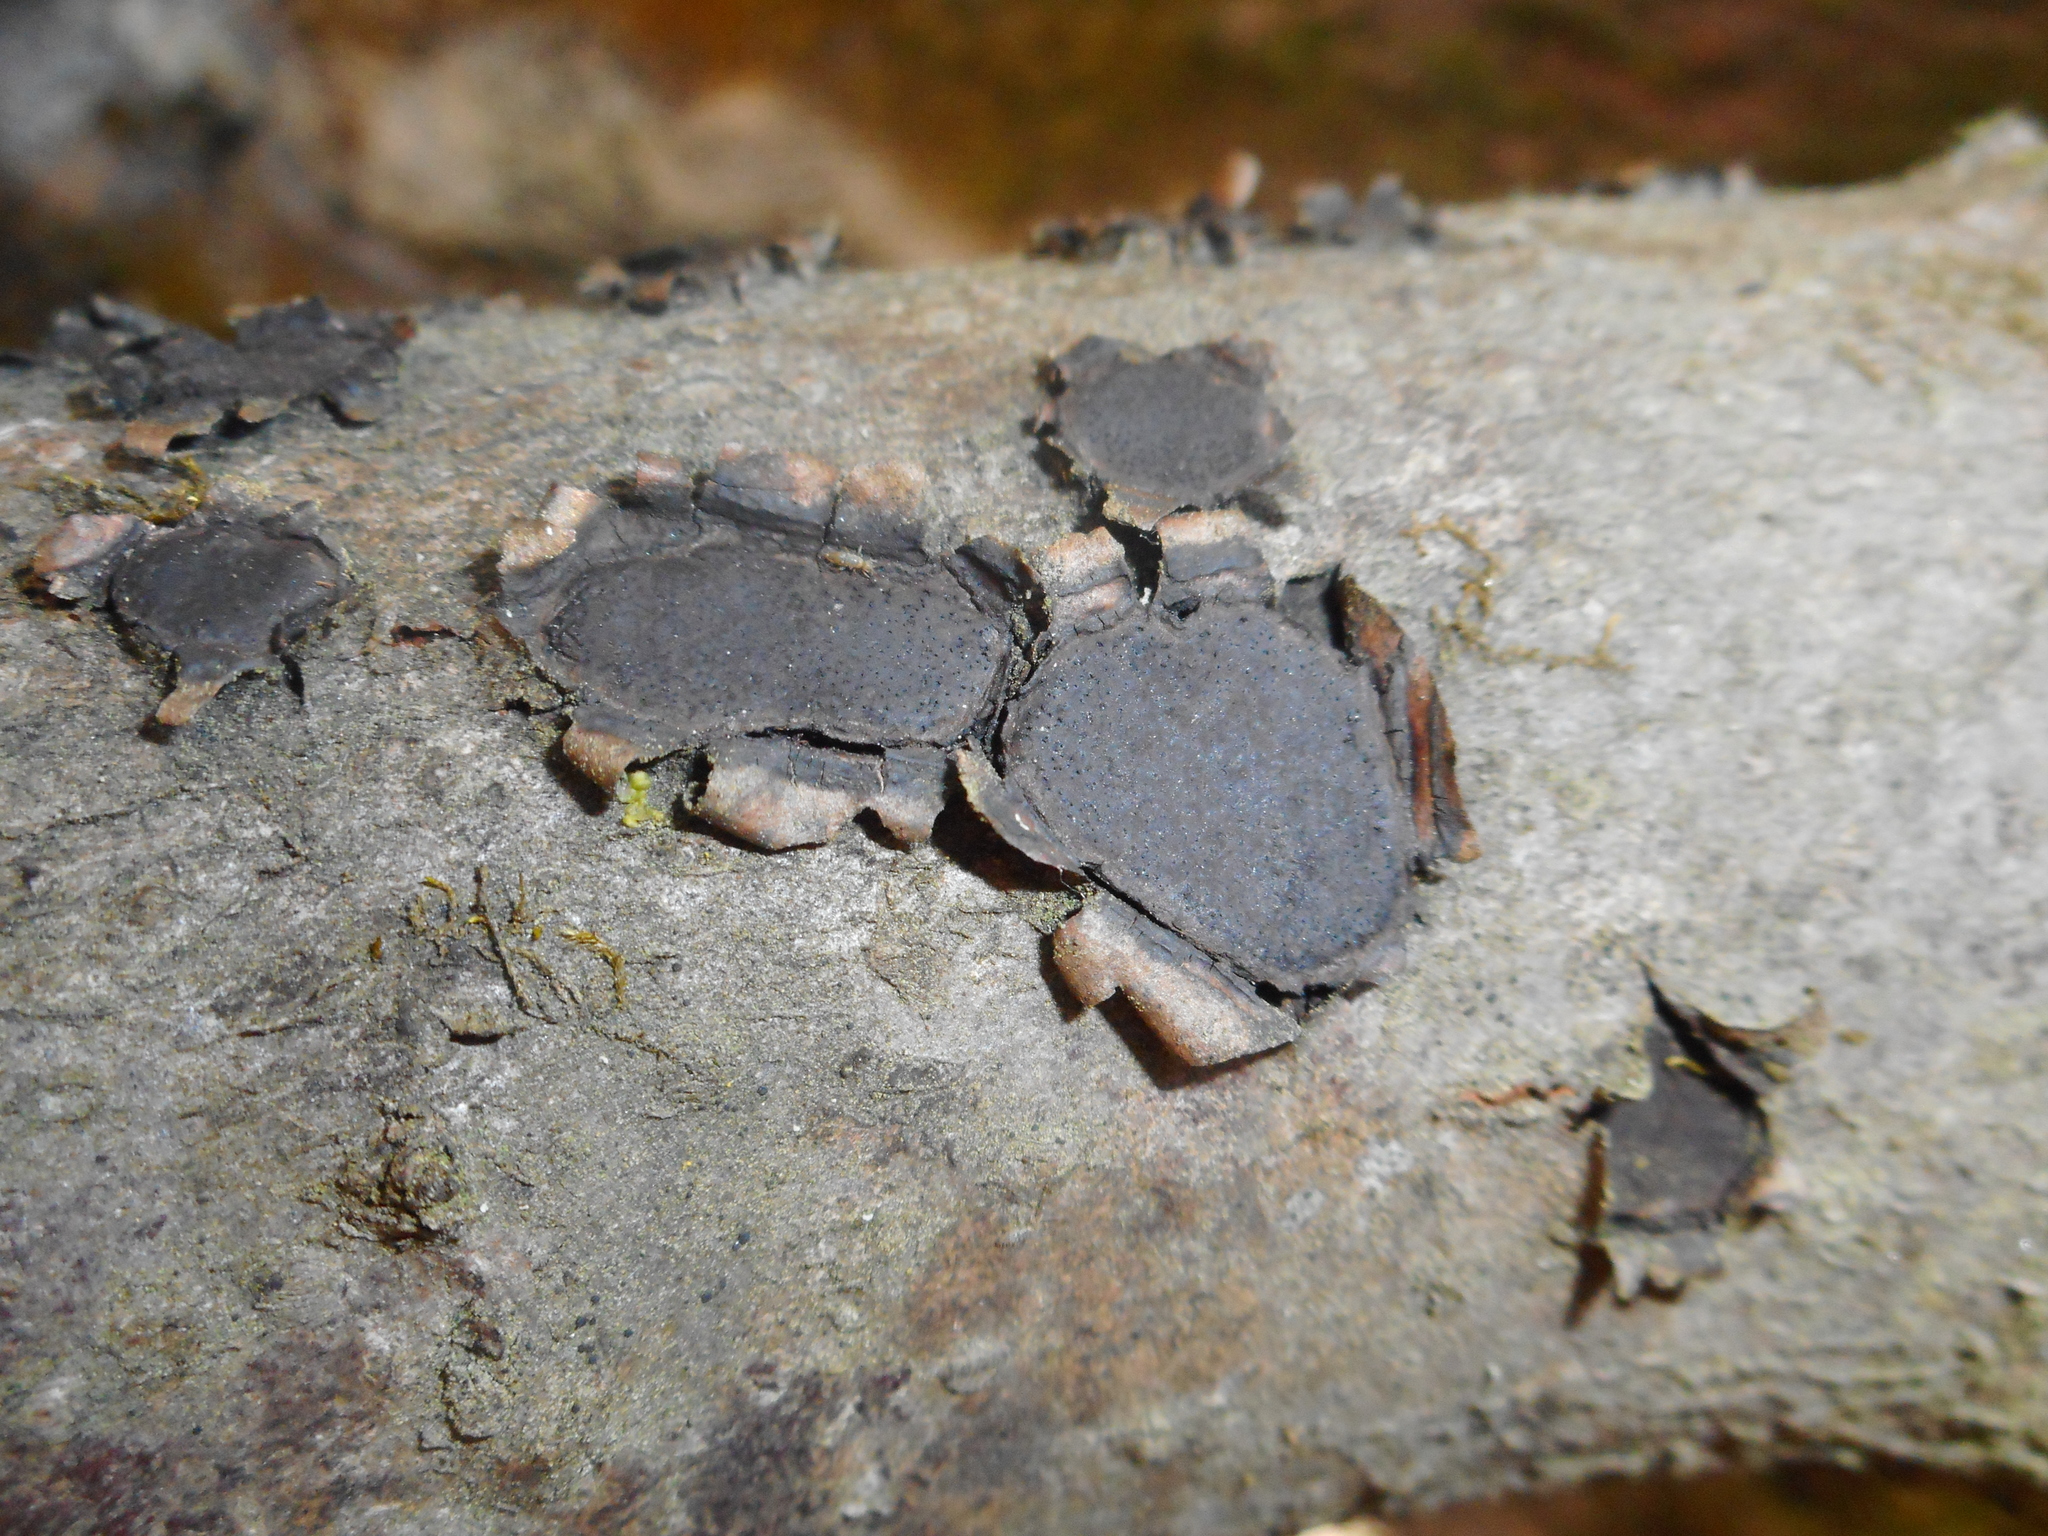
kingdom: Fungi
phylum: Ascomycota
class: Sordariomycetes
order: Xylariales
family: Graphostromataceae
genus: Biscogniauxia
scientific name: Biscogniauxia granmoi
